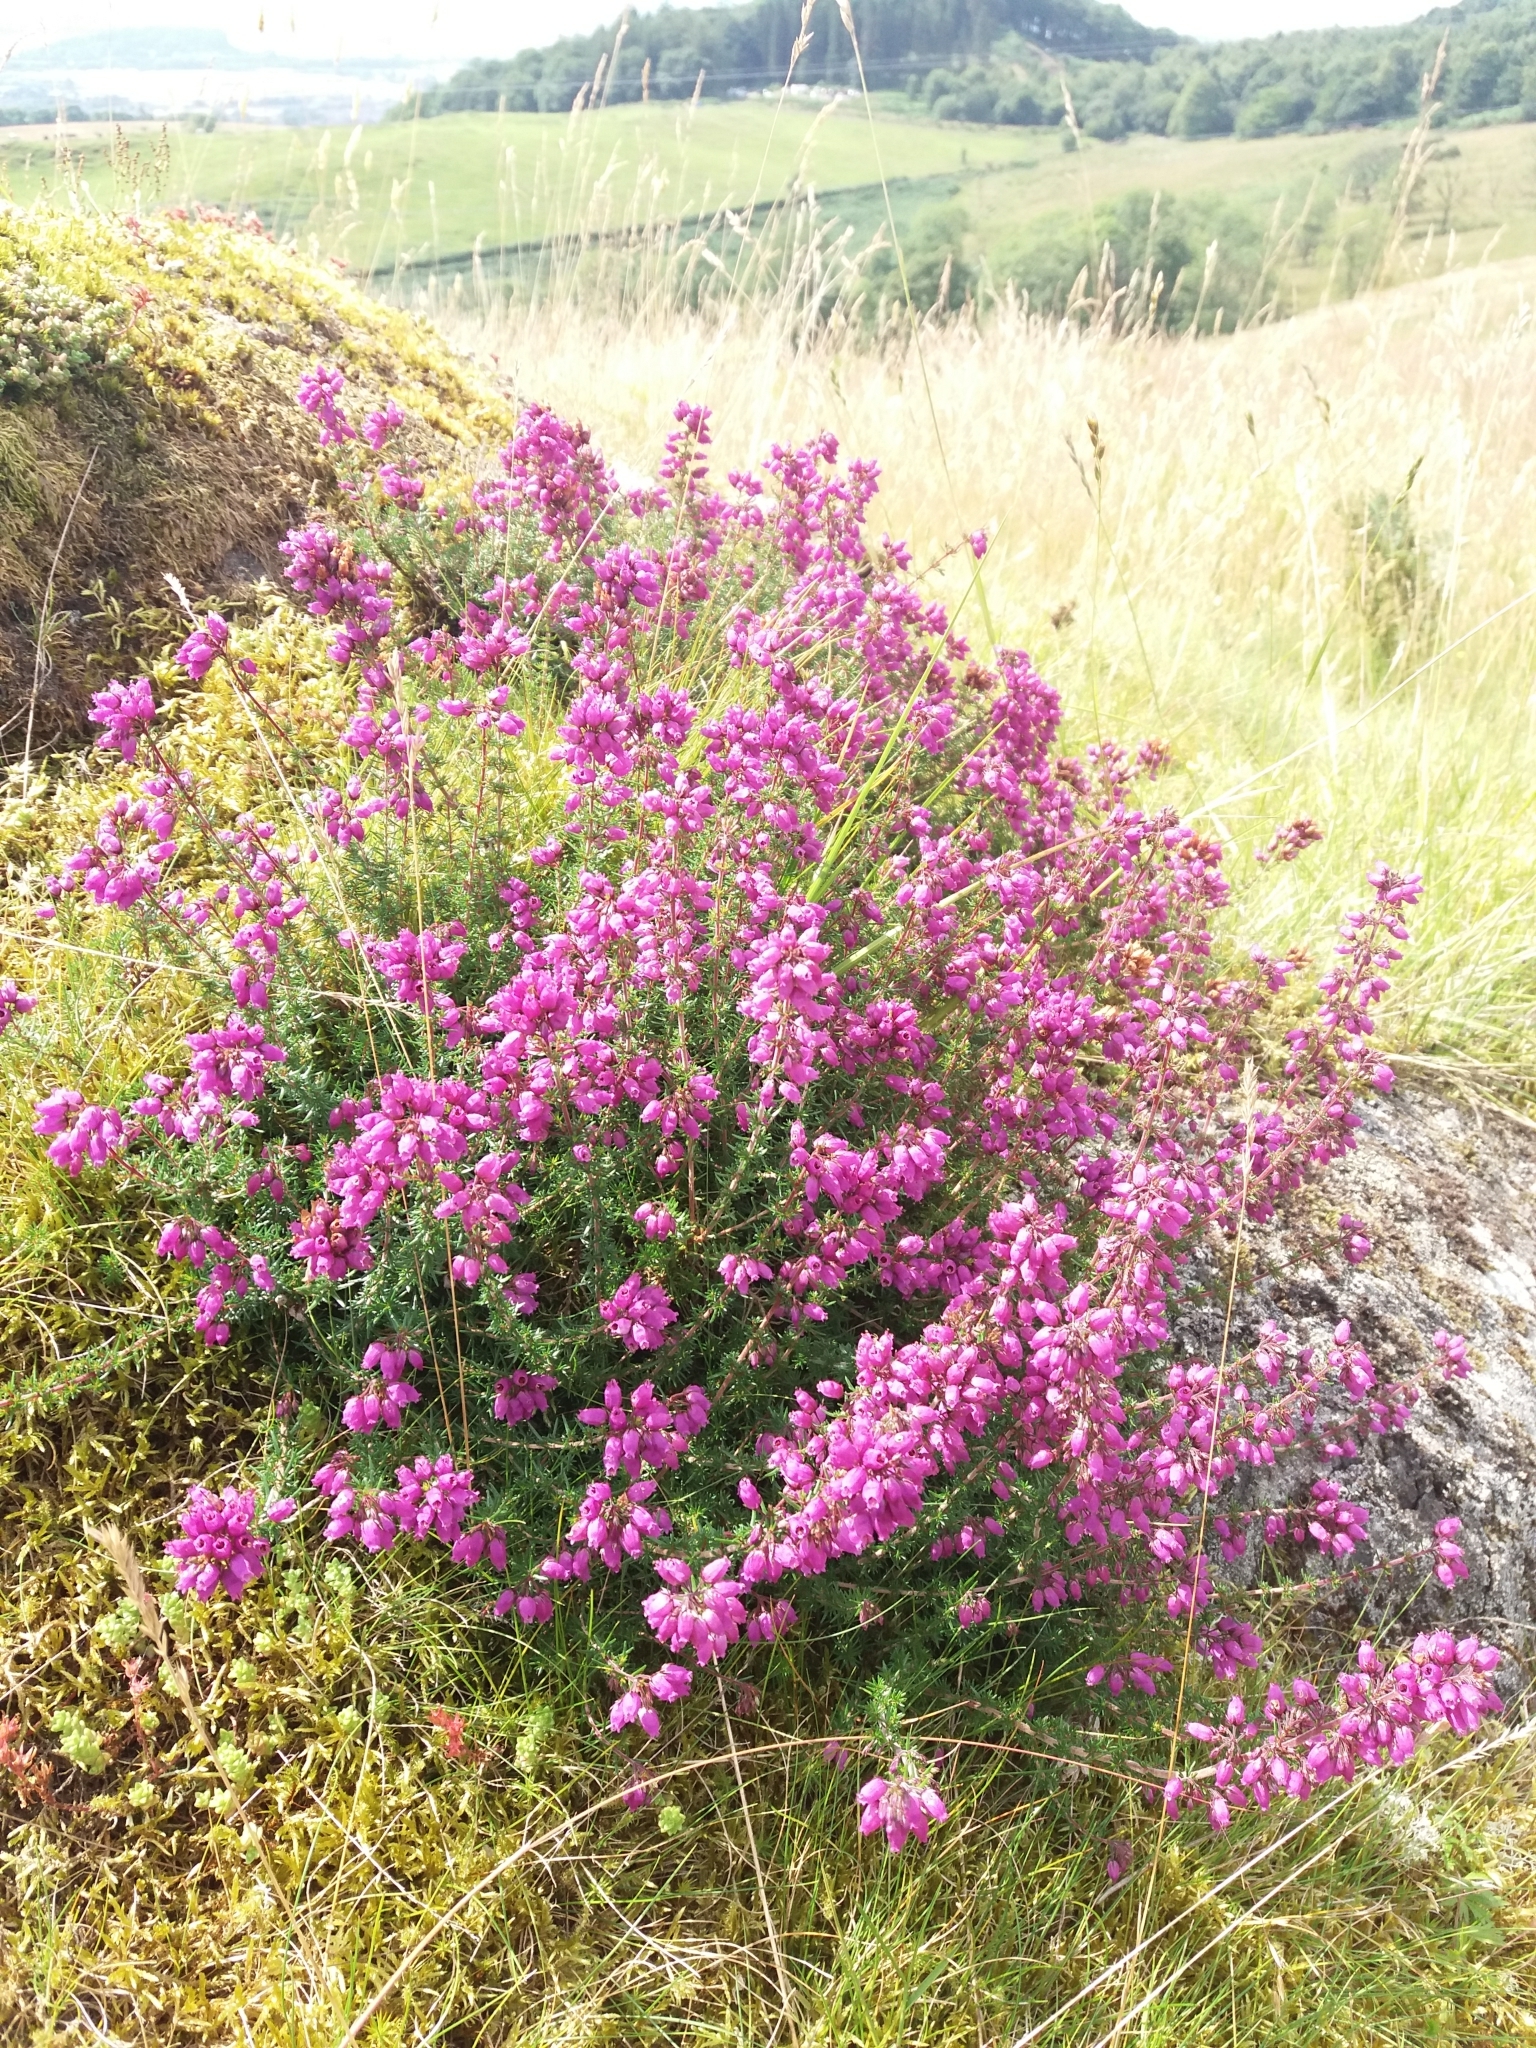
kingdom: Plantae
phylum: Tracheophyta
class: Magnoliopsida
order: Ericales
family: Ericaceae
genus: Erica
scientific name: Erica cinerea
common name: Bell heather
